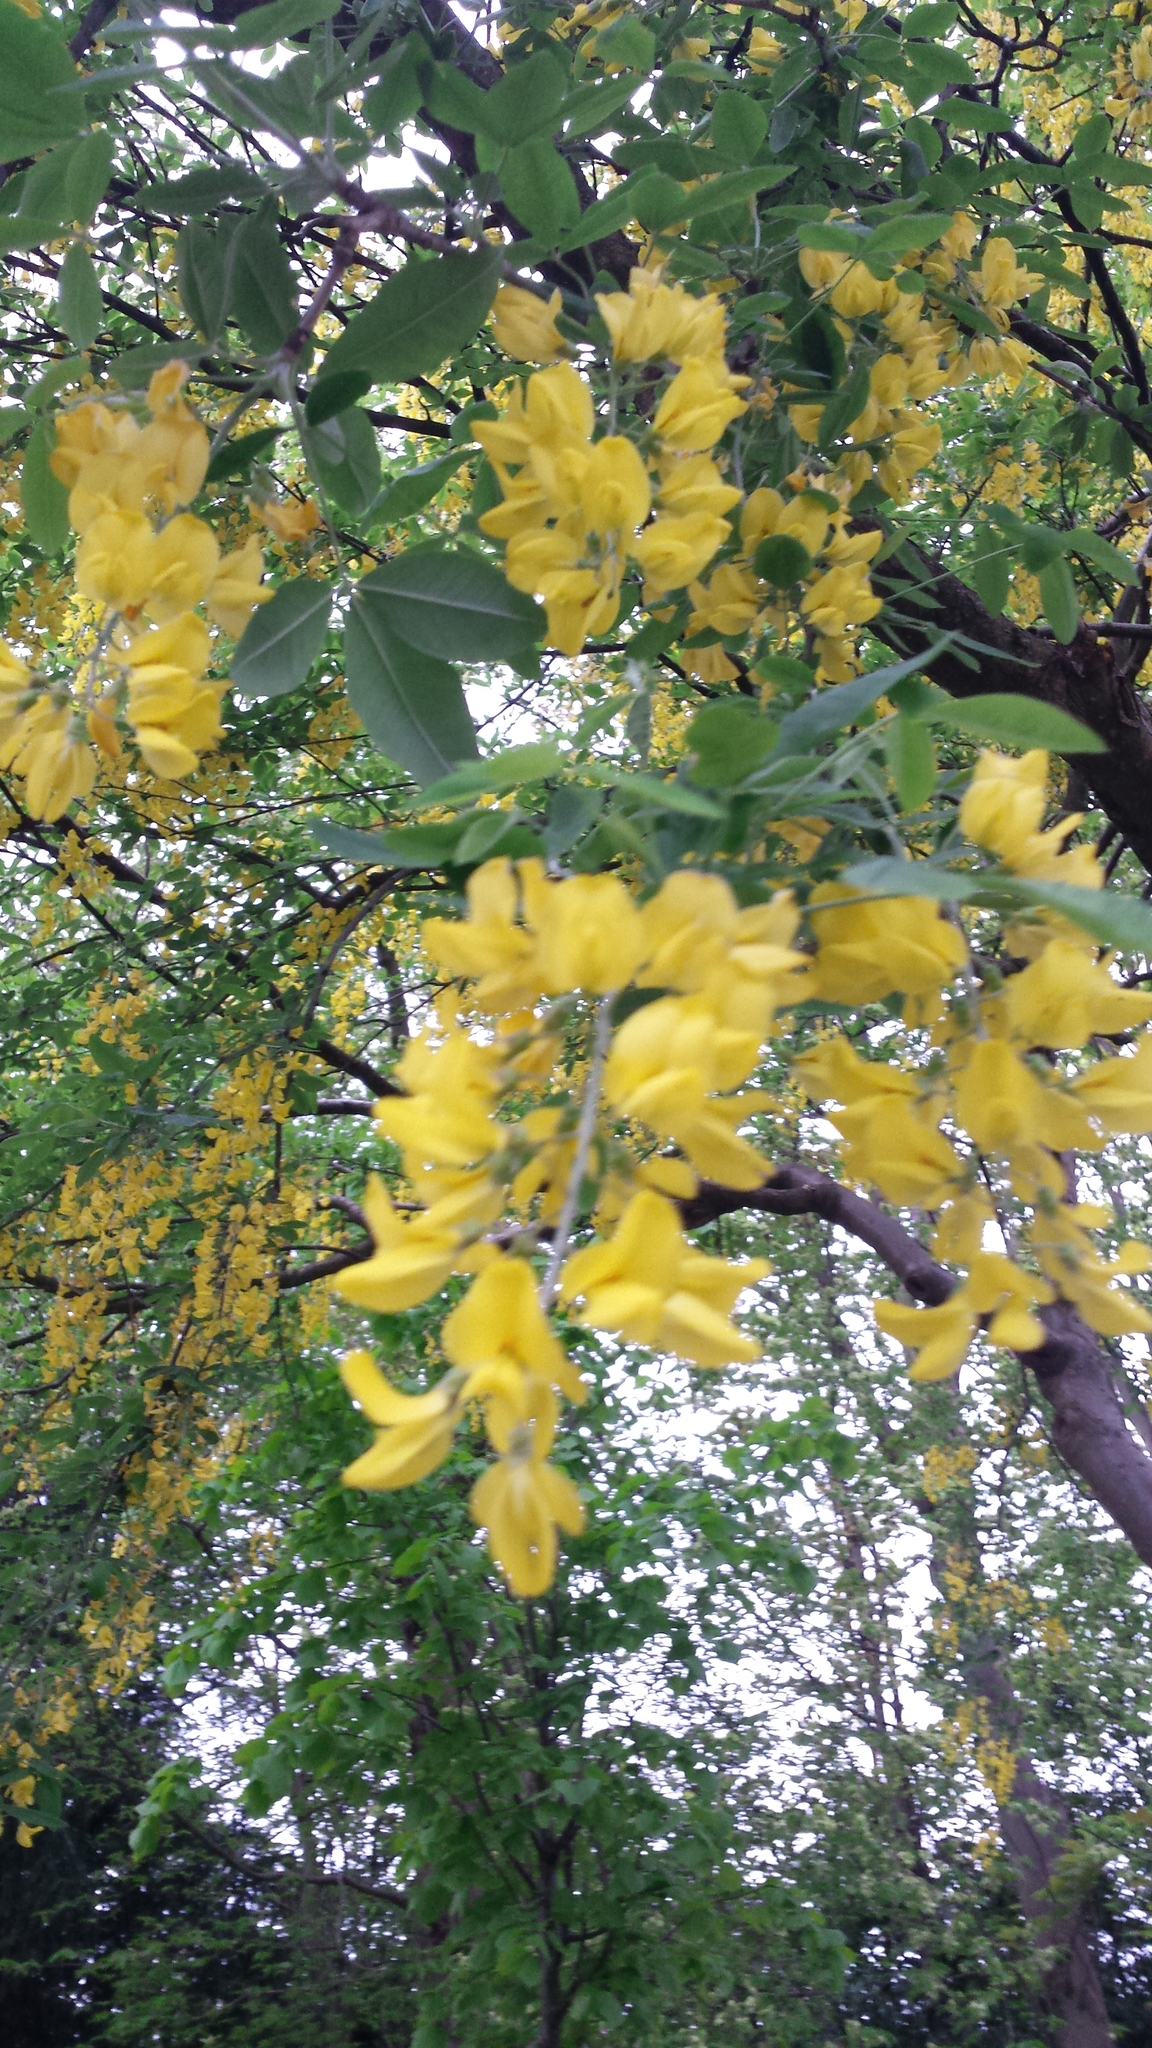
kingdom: Plantae
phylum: Tracheophyta
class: Magnoliopsida
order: Fabales
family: Fabaceae
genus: Laburnum
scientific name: Laburnum anagyroides
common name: Laburnum
